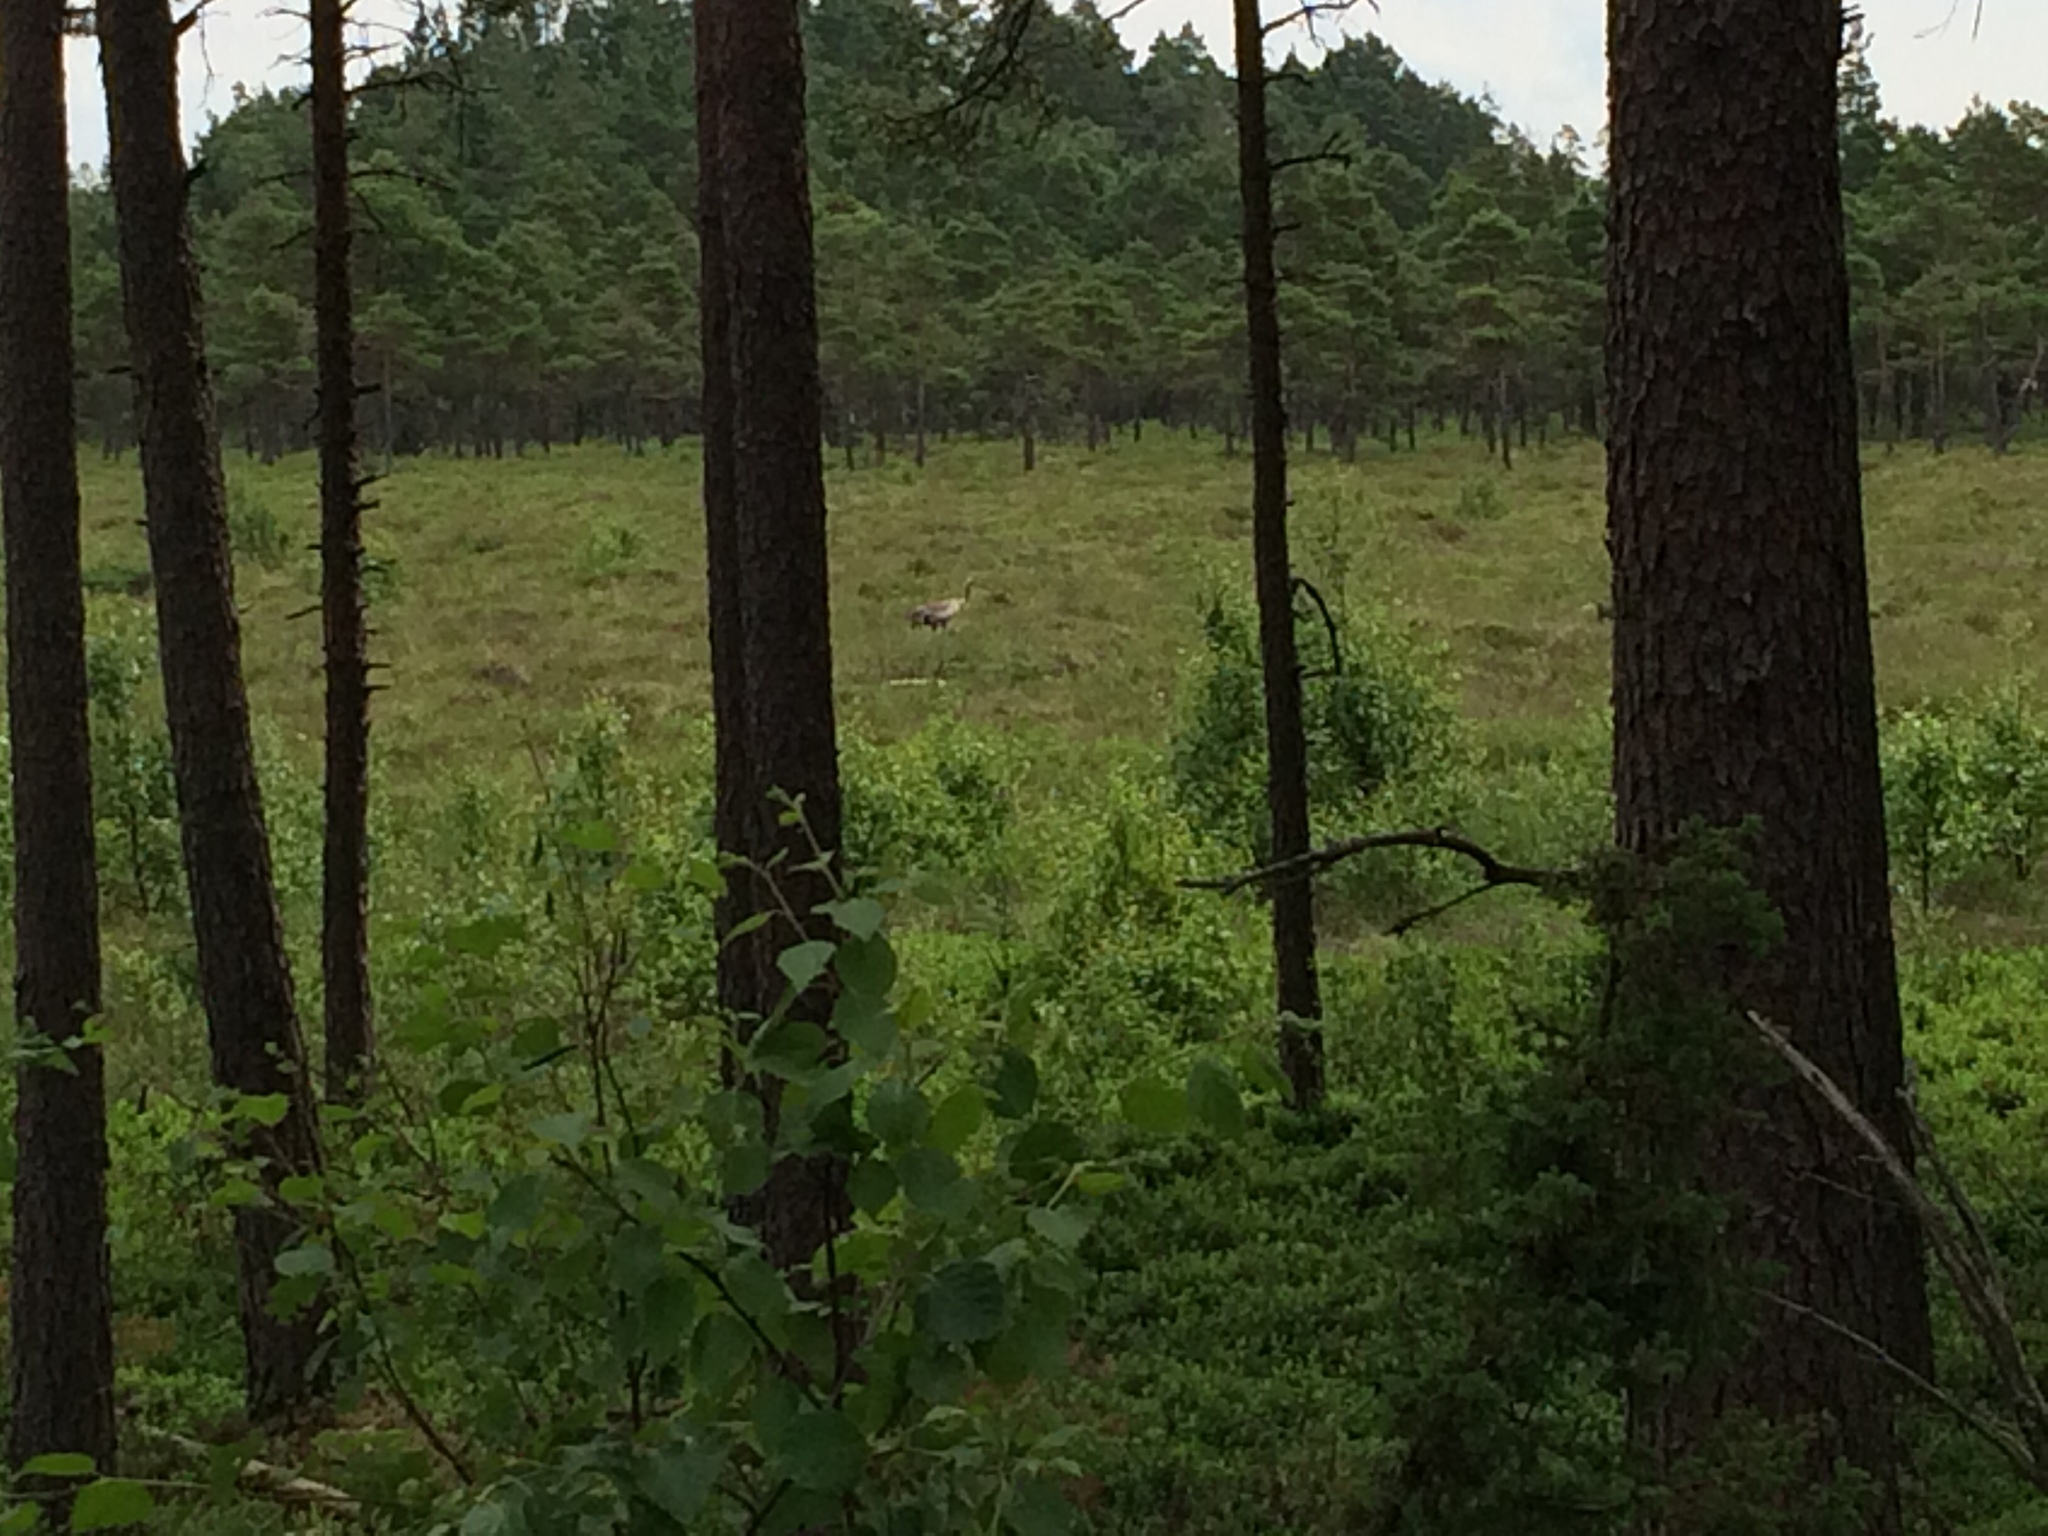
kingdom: Animalia
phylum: Chordata
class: Aves
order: Gruiformes
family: Gruidae
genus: Grus
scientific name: Grus grus
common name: Common crane
